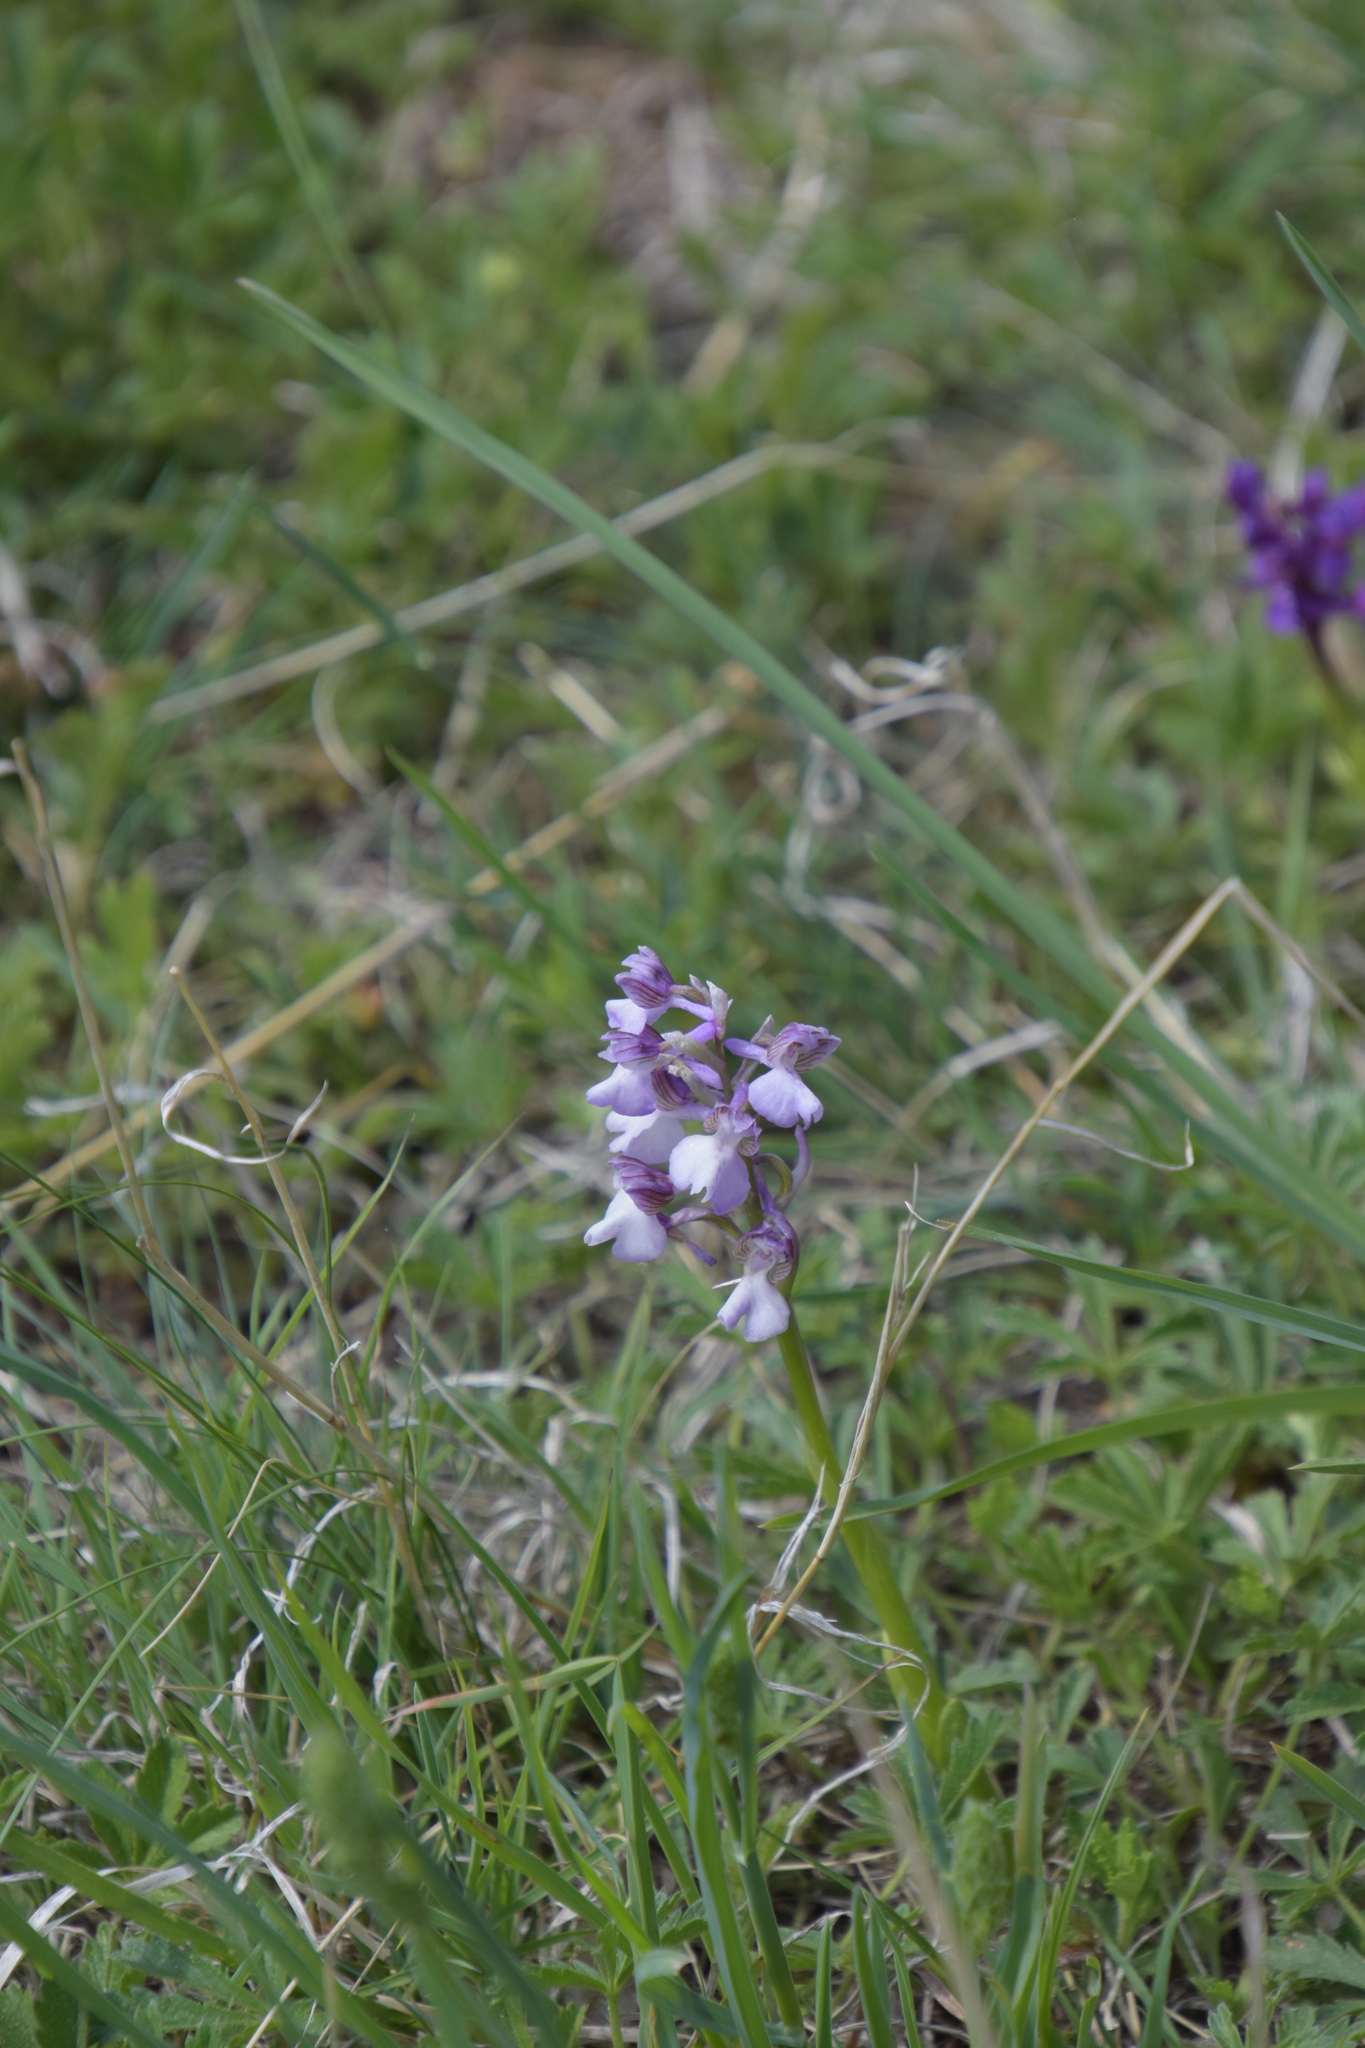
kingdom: Plantae
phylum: Tracheophyta
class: Liliopsida
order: Asparagales
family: Orchidaceae
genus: Anacamptis
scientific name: Anacamptis morio
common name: Green-winged orchid
